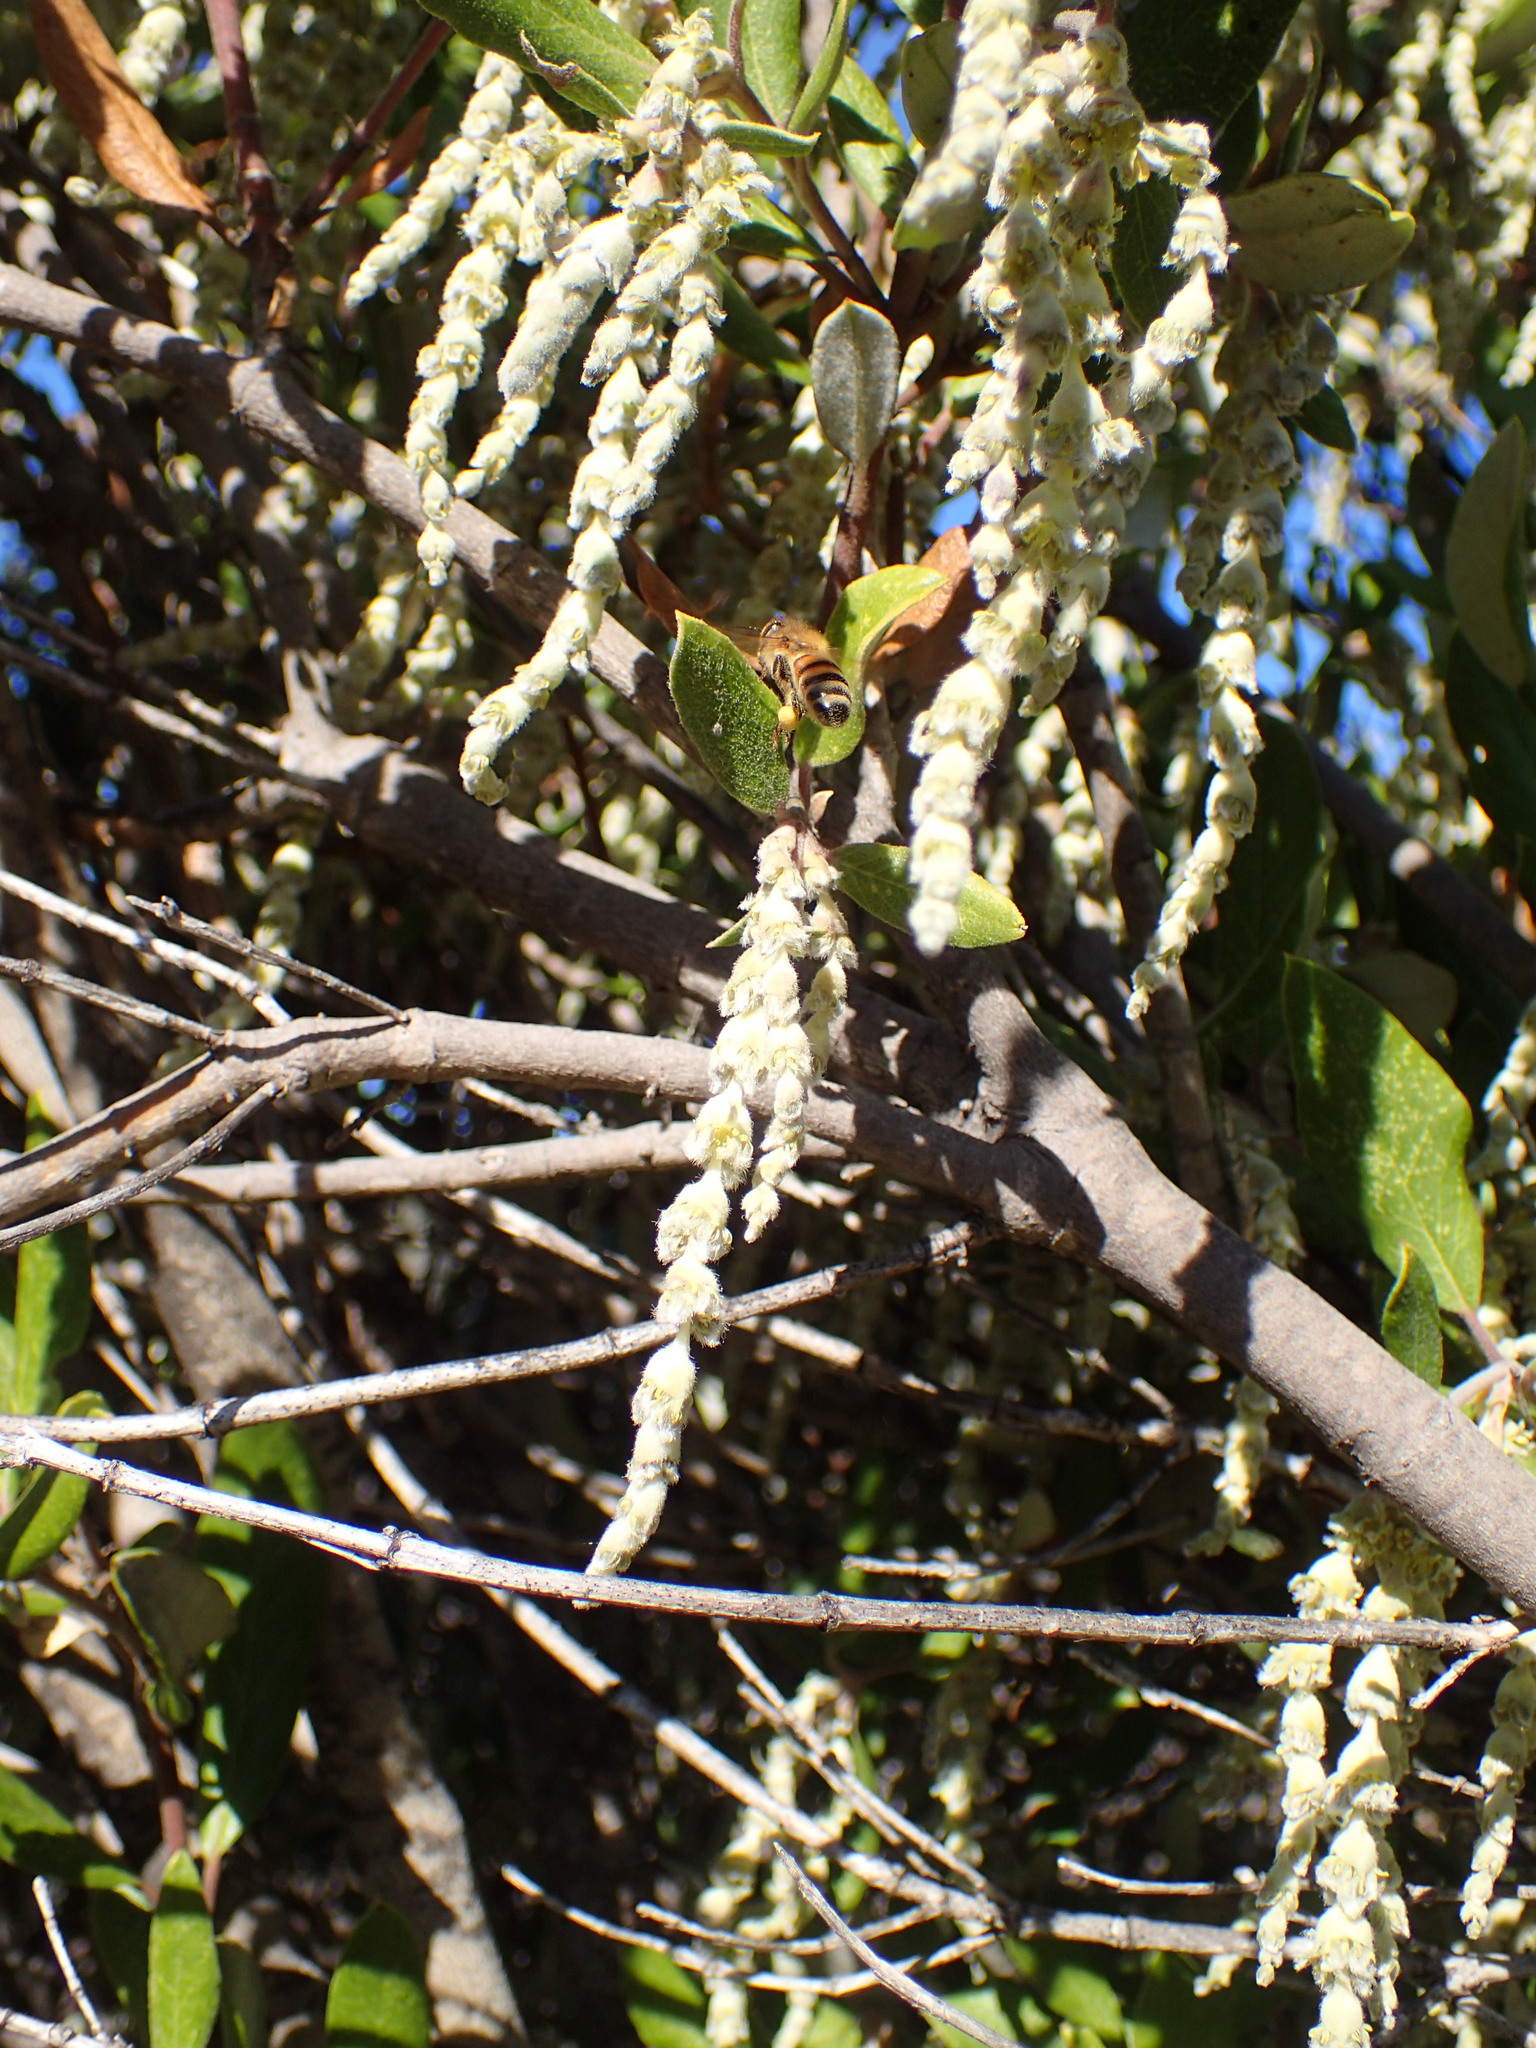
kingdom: Animalia
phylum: Arthropoda
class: Insecta
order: Hymenoptera
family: Apidae
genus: Apis
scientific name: Apis mellifera
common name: Honey bee
